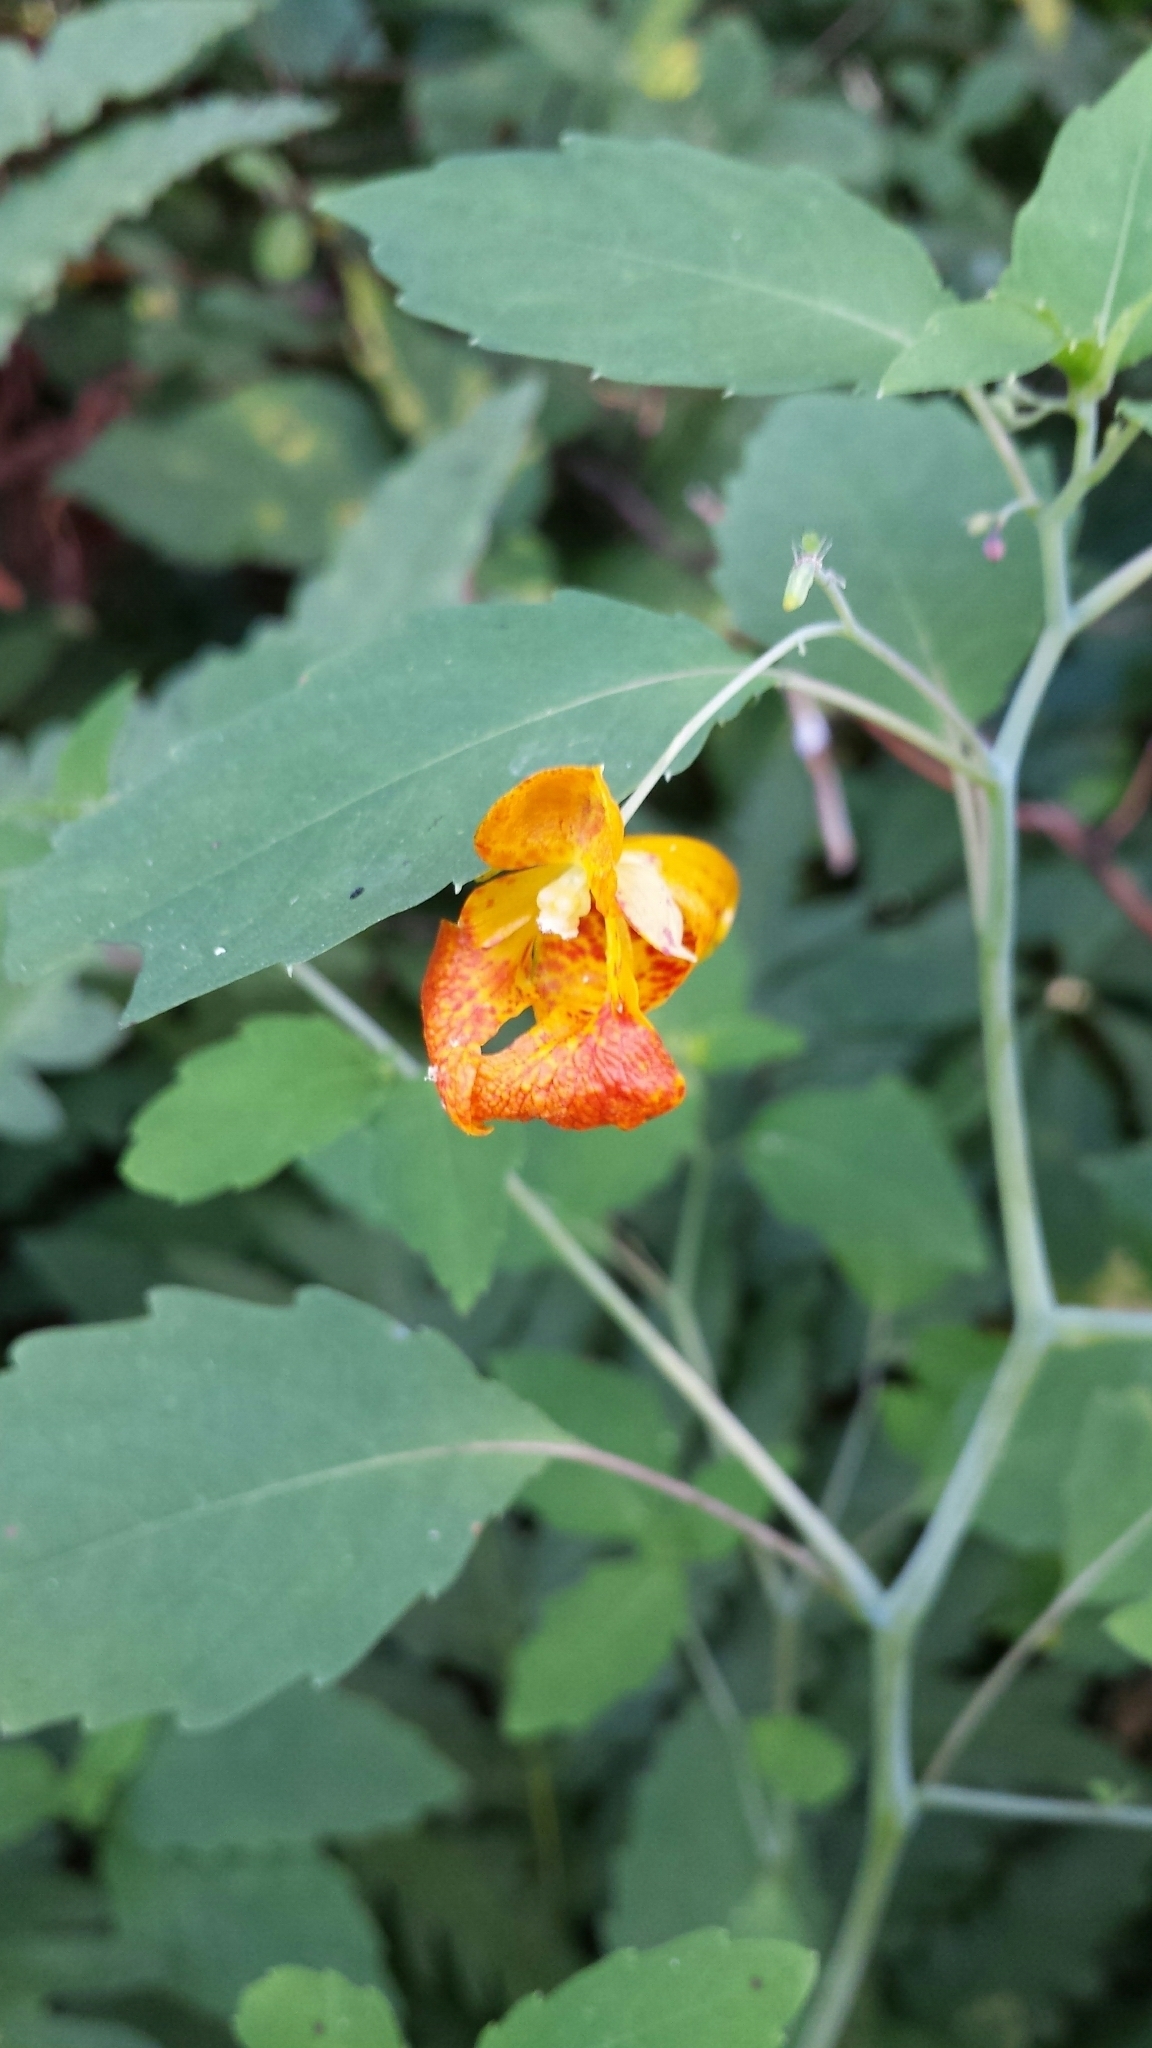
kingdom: Plantae
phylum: Tracheophyta
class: Magnoliopsida
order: Ericales
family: Balsaminaceae
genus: Impatiens
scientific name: Impatiens capensis
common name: Orange balsam
